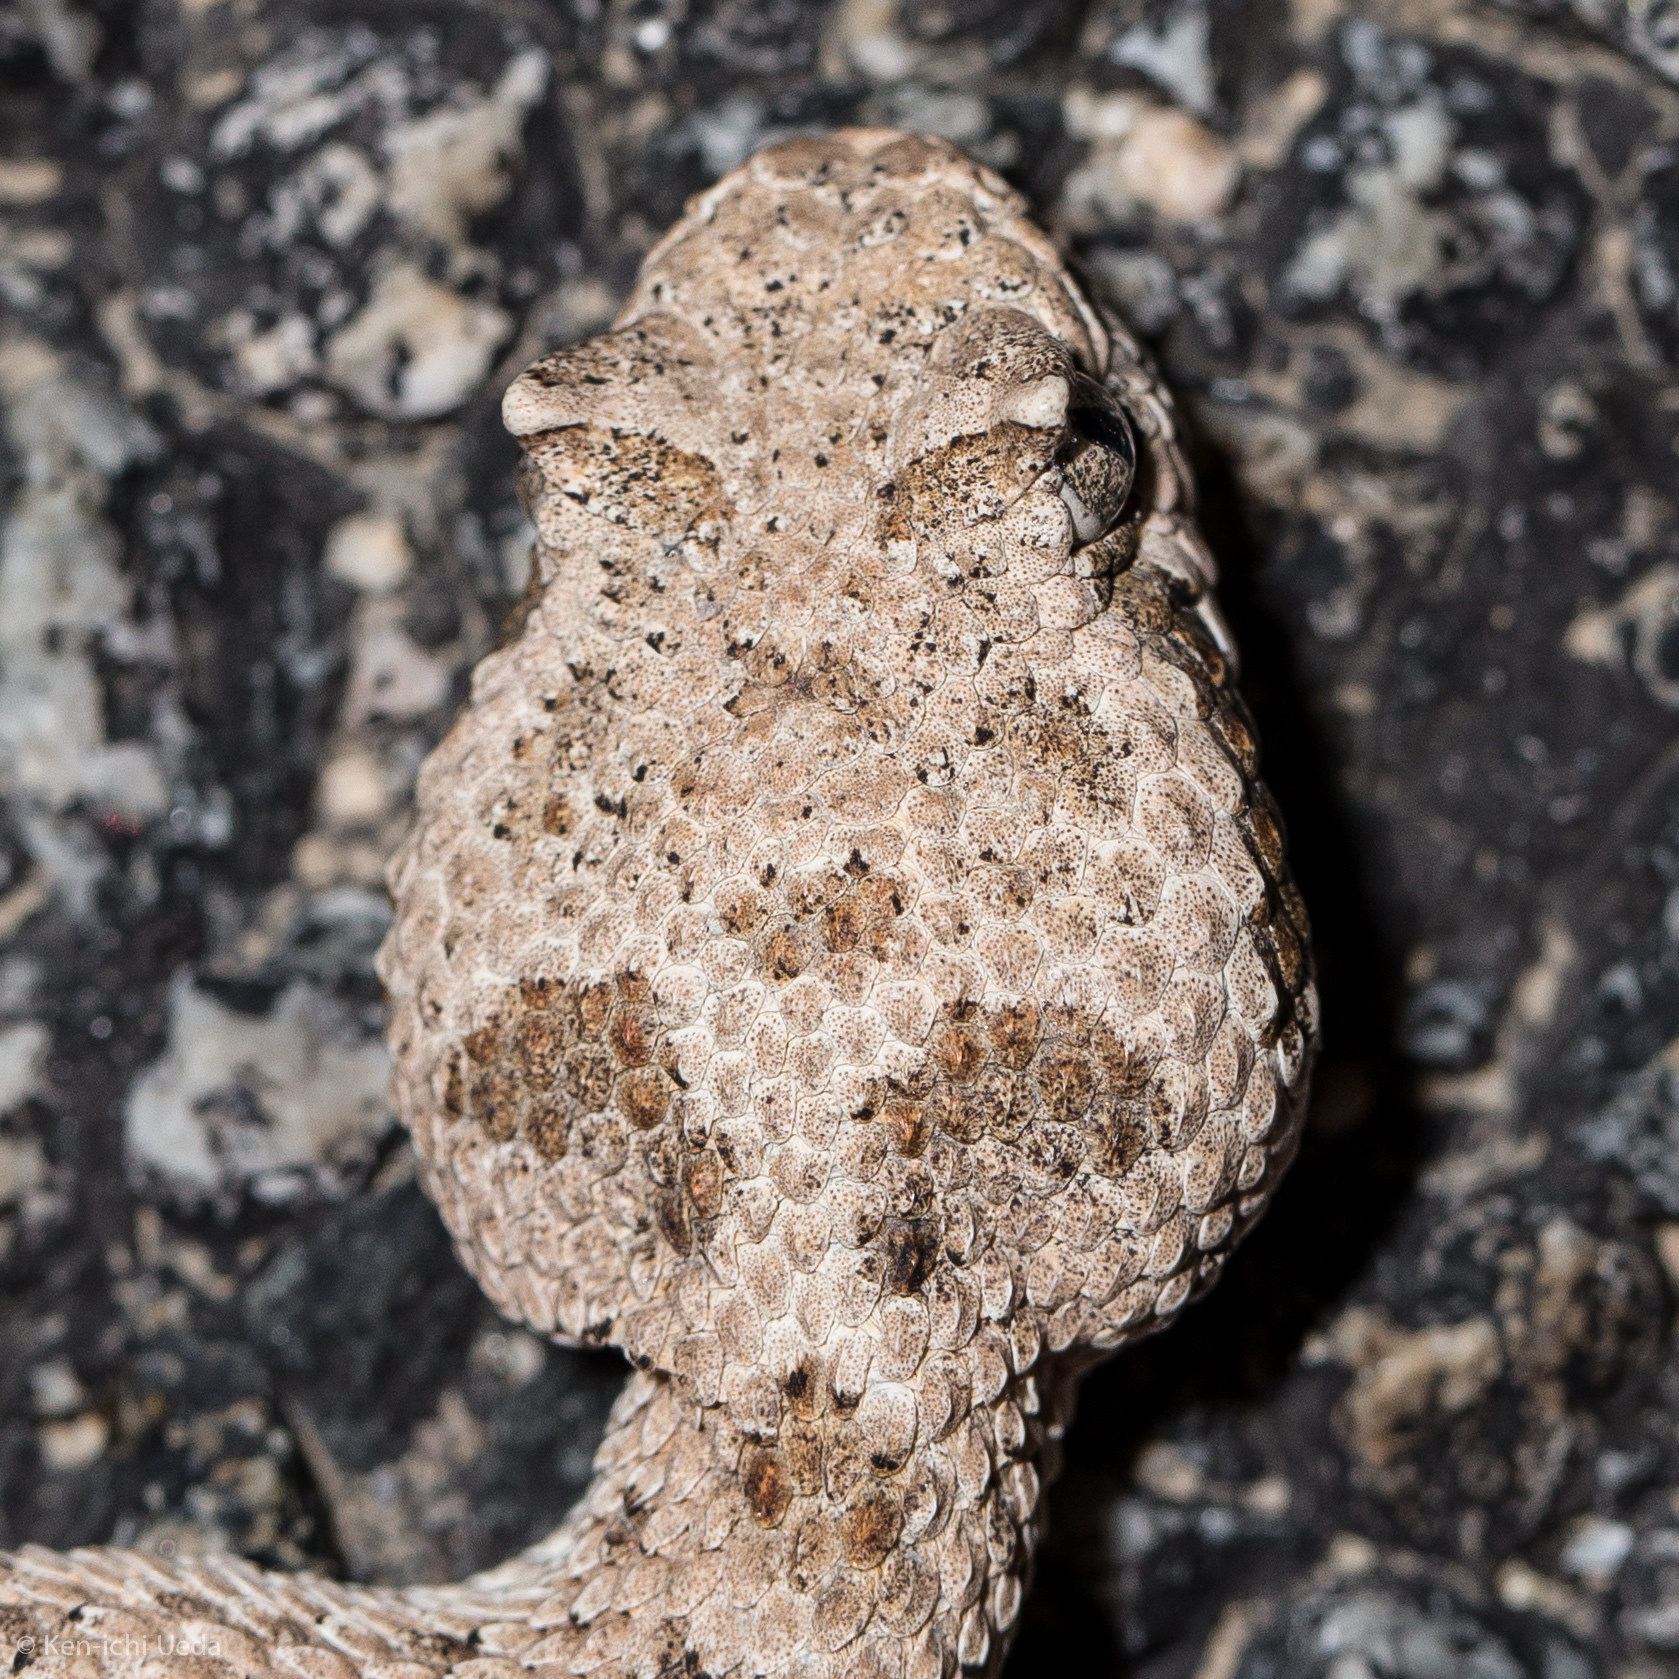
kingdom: Animalia
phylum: Chordata
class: Squamata
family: Viperidae
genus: Crotalus
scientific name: Crotalus cerastes
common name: Sidewinder
